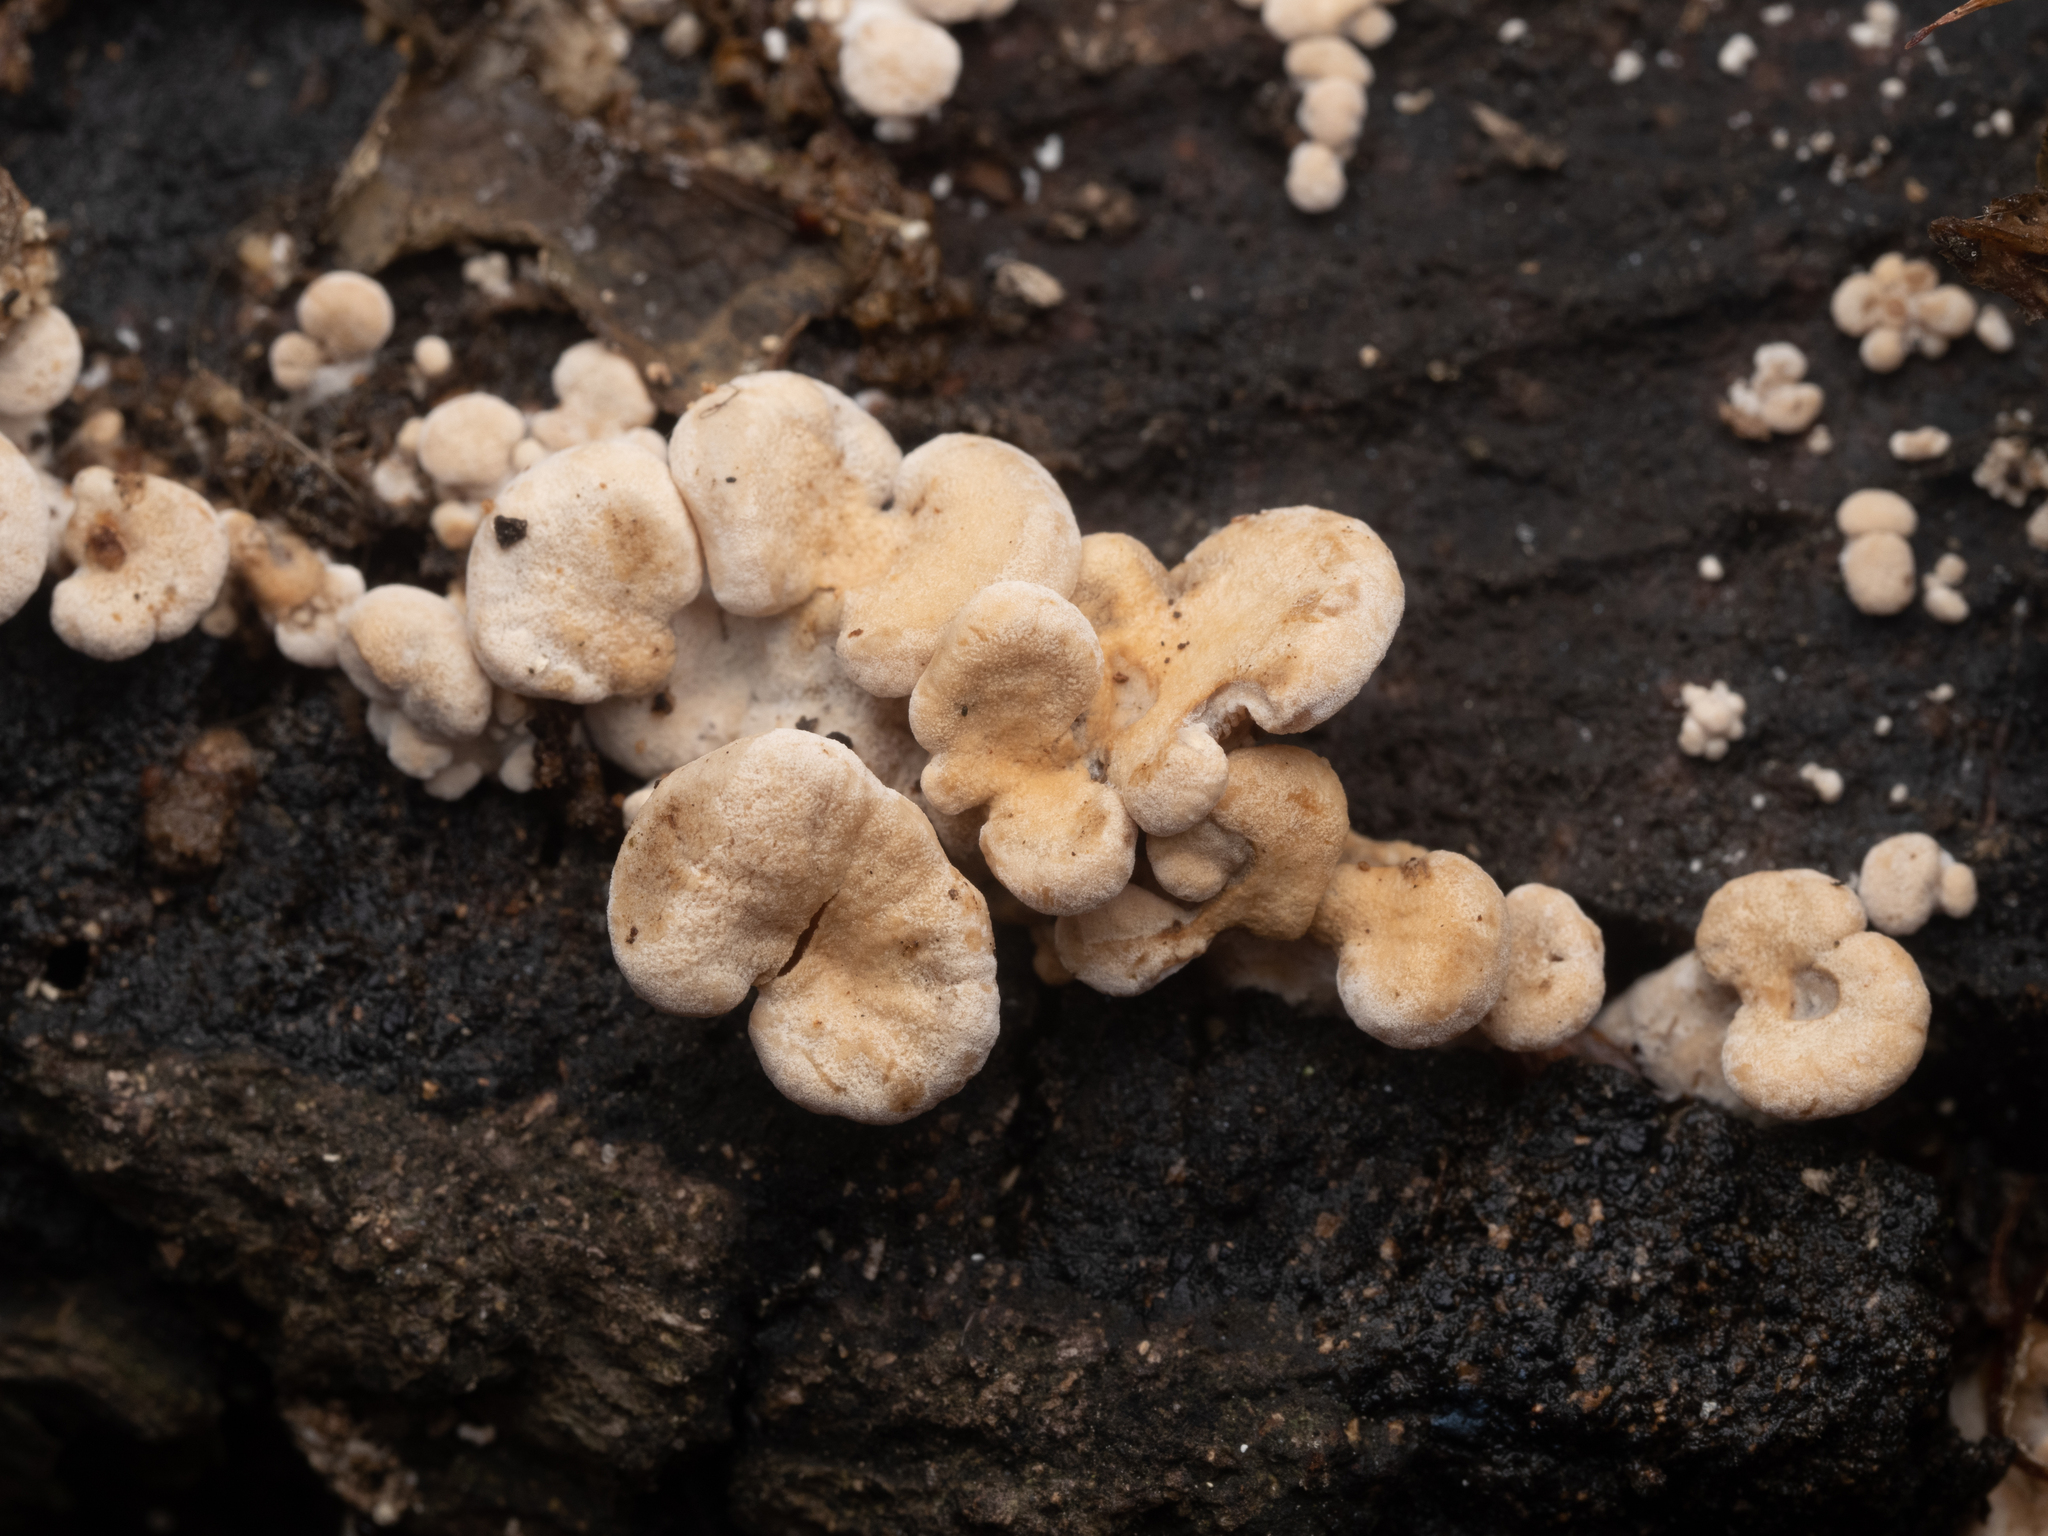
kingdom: Fungi
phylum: Basidiomycota
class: Agaricomycetes
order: Agaricales
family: Mycenaceae
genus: Panellus
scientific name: Panellus stipticus
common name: Bitter oysterling
